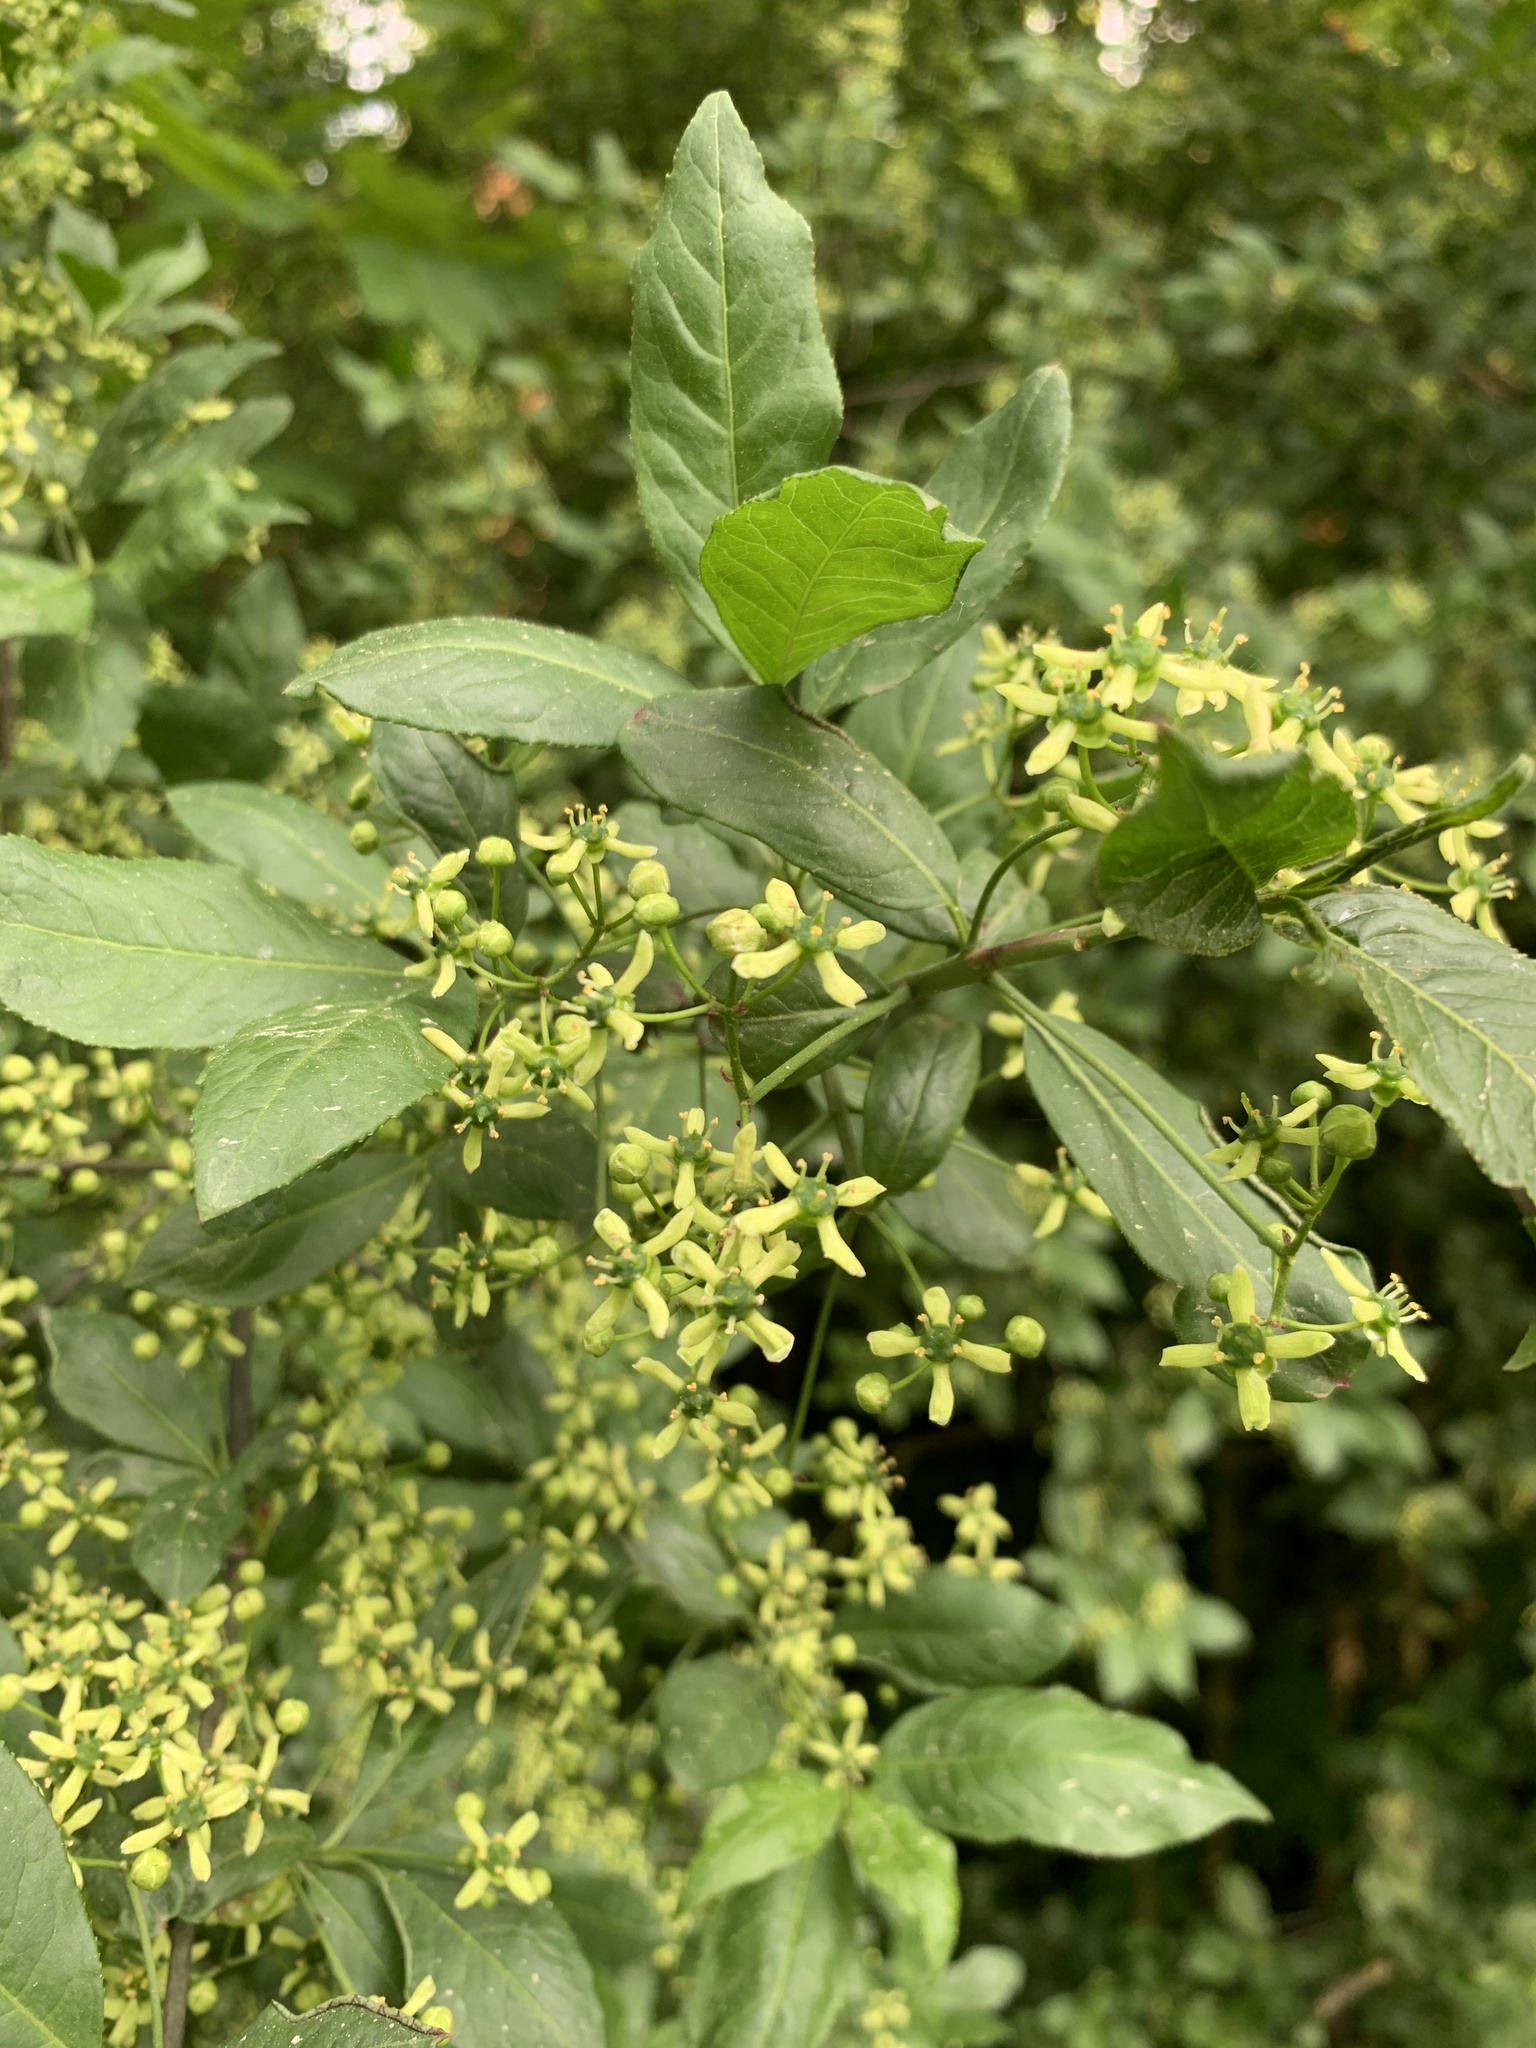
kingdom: Plantae
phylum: Tracheophyta
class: Magnoliopsida
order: Celastrales
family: Celastraceae
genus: Euonymus
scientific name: Euonymus europaeus
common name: Spindle
